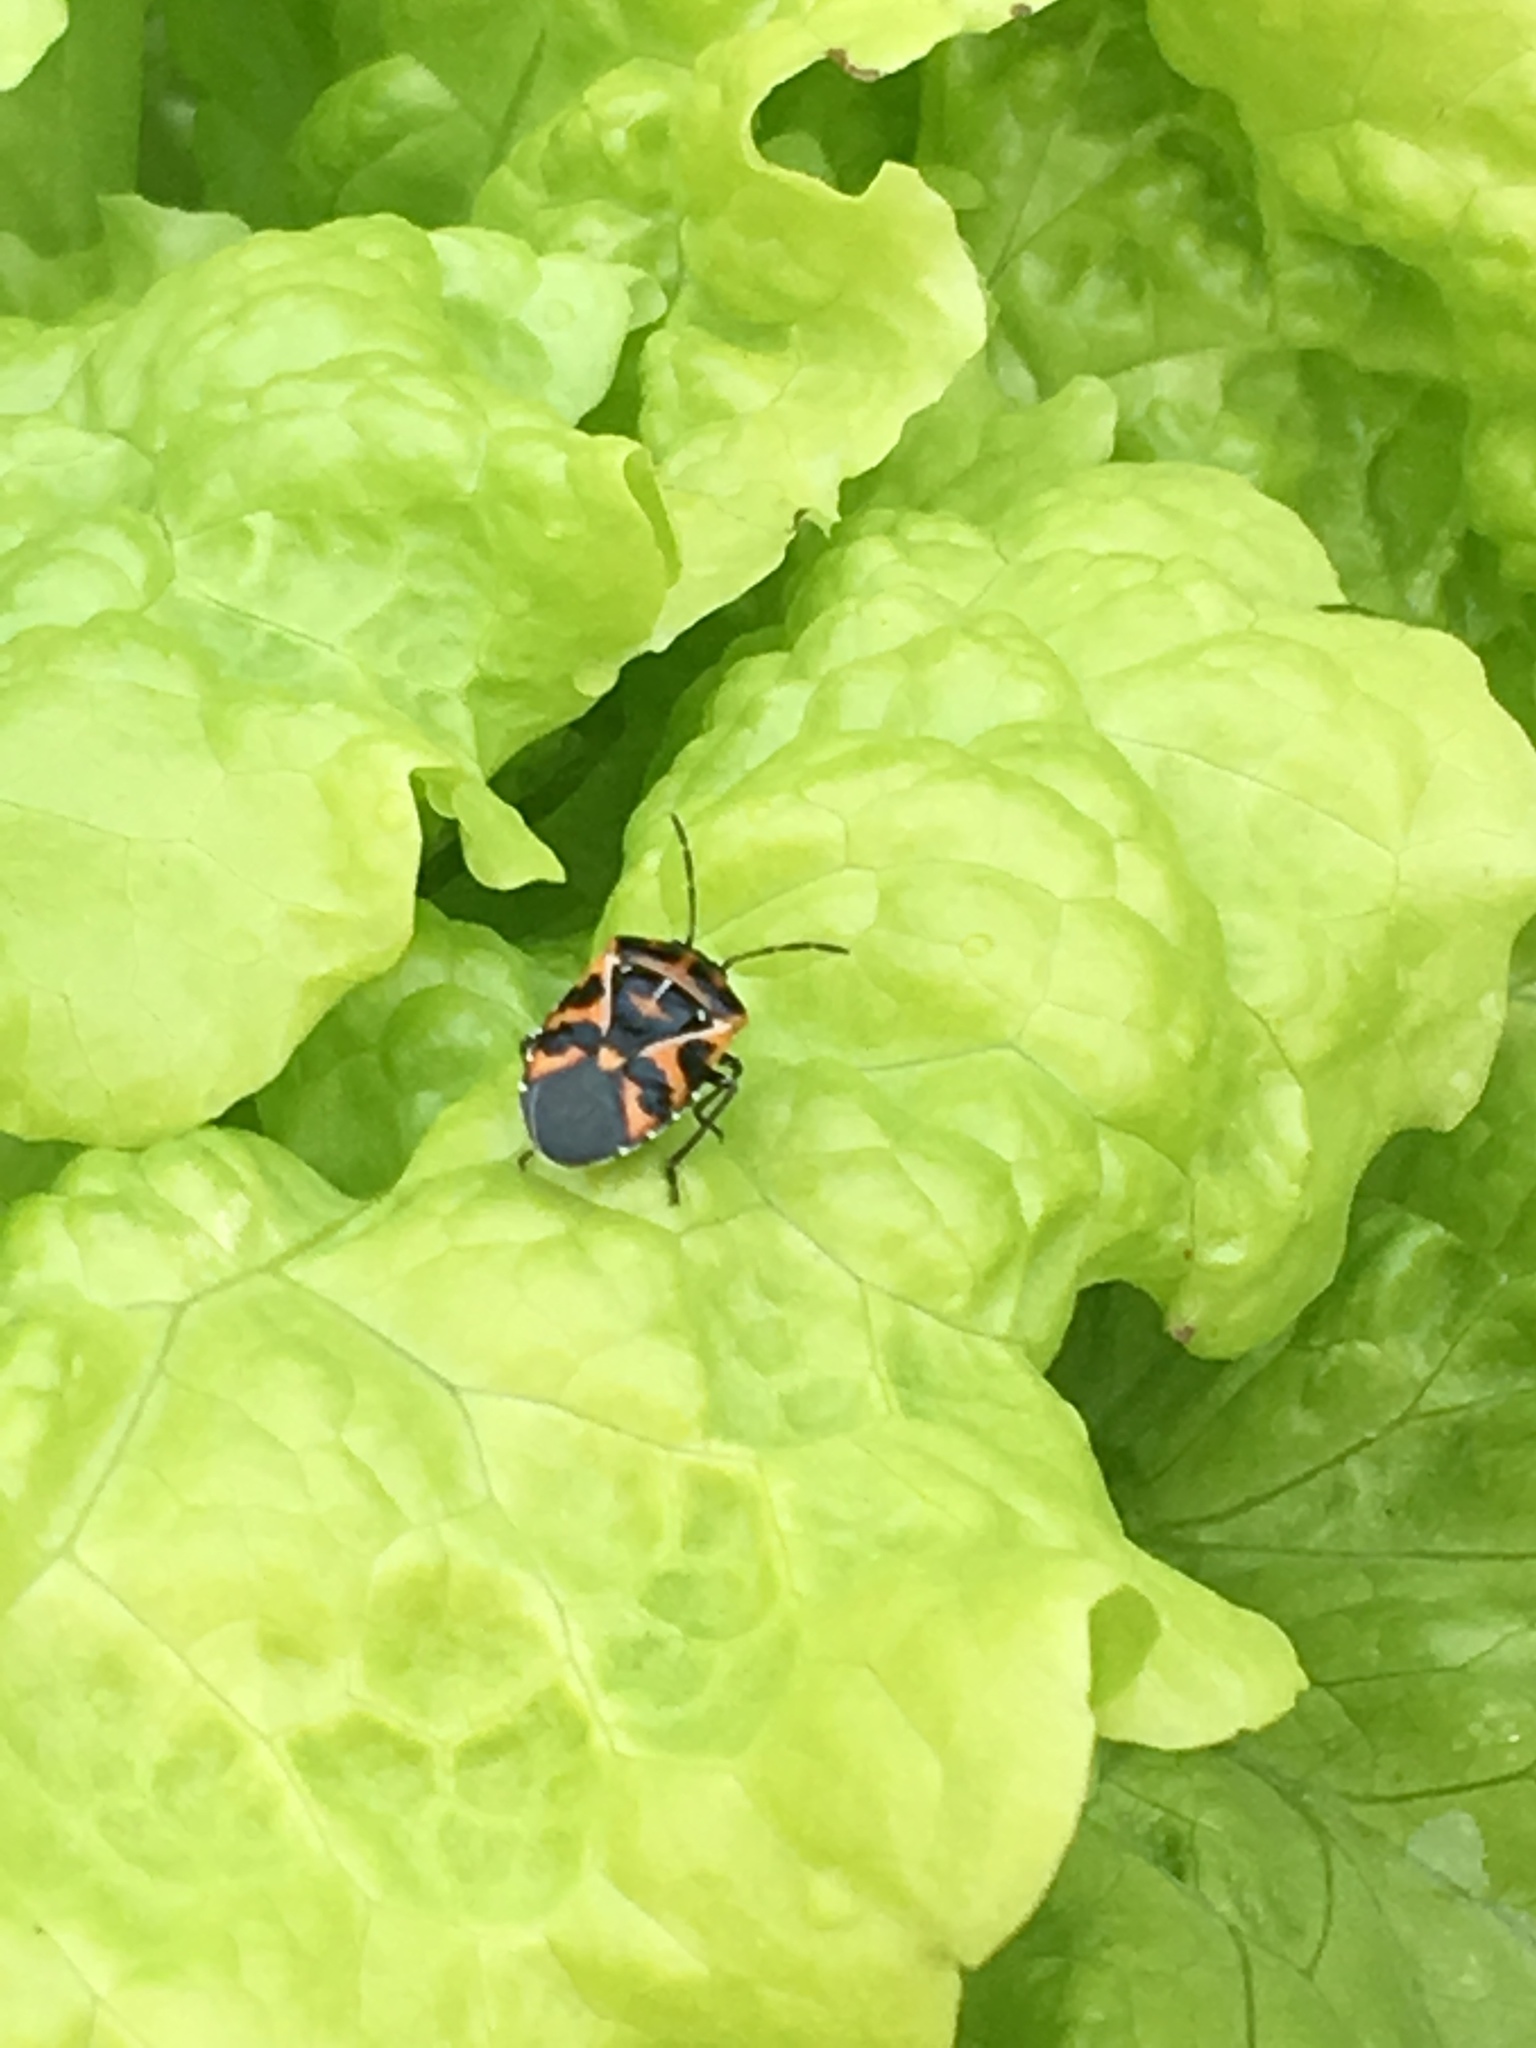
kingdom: Animalia
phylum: Arthropoda
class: Insecta
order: Hemiptera
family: Pentatomidae
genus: Murgantia
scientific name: Murgantia histrionica
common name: Harlequin bug
